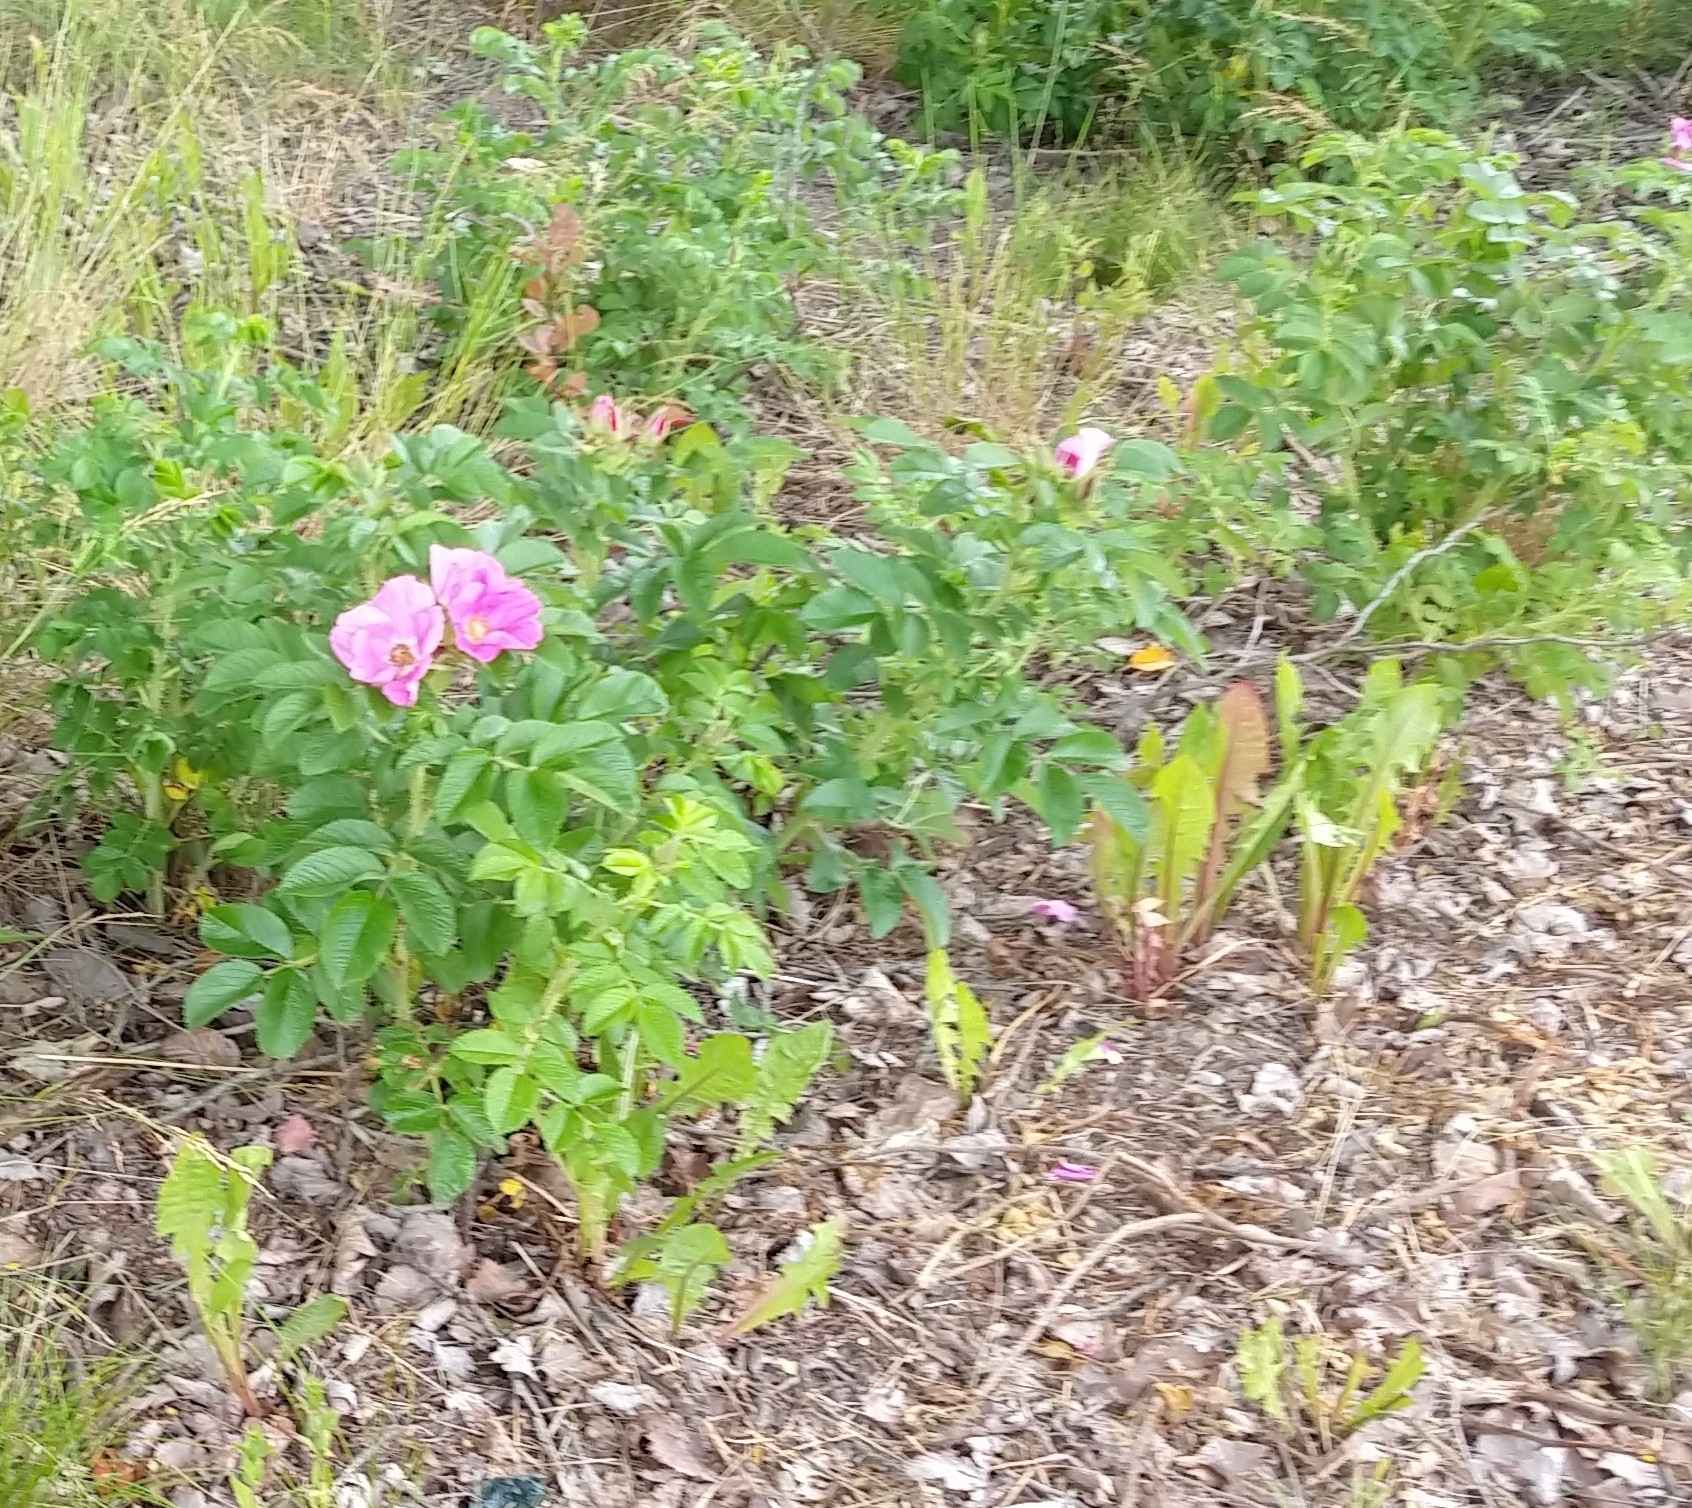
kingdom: Plantae
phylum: Tracheophyta
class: Magnoliopsida
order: Rosales
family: Rosaceae
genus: Rosa
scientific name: Rosa rugosa
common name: Japanese rose
